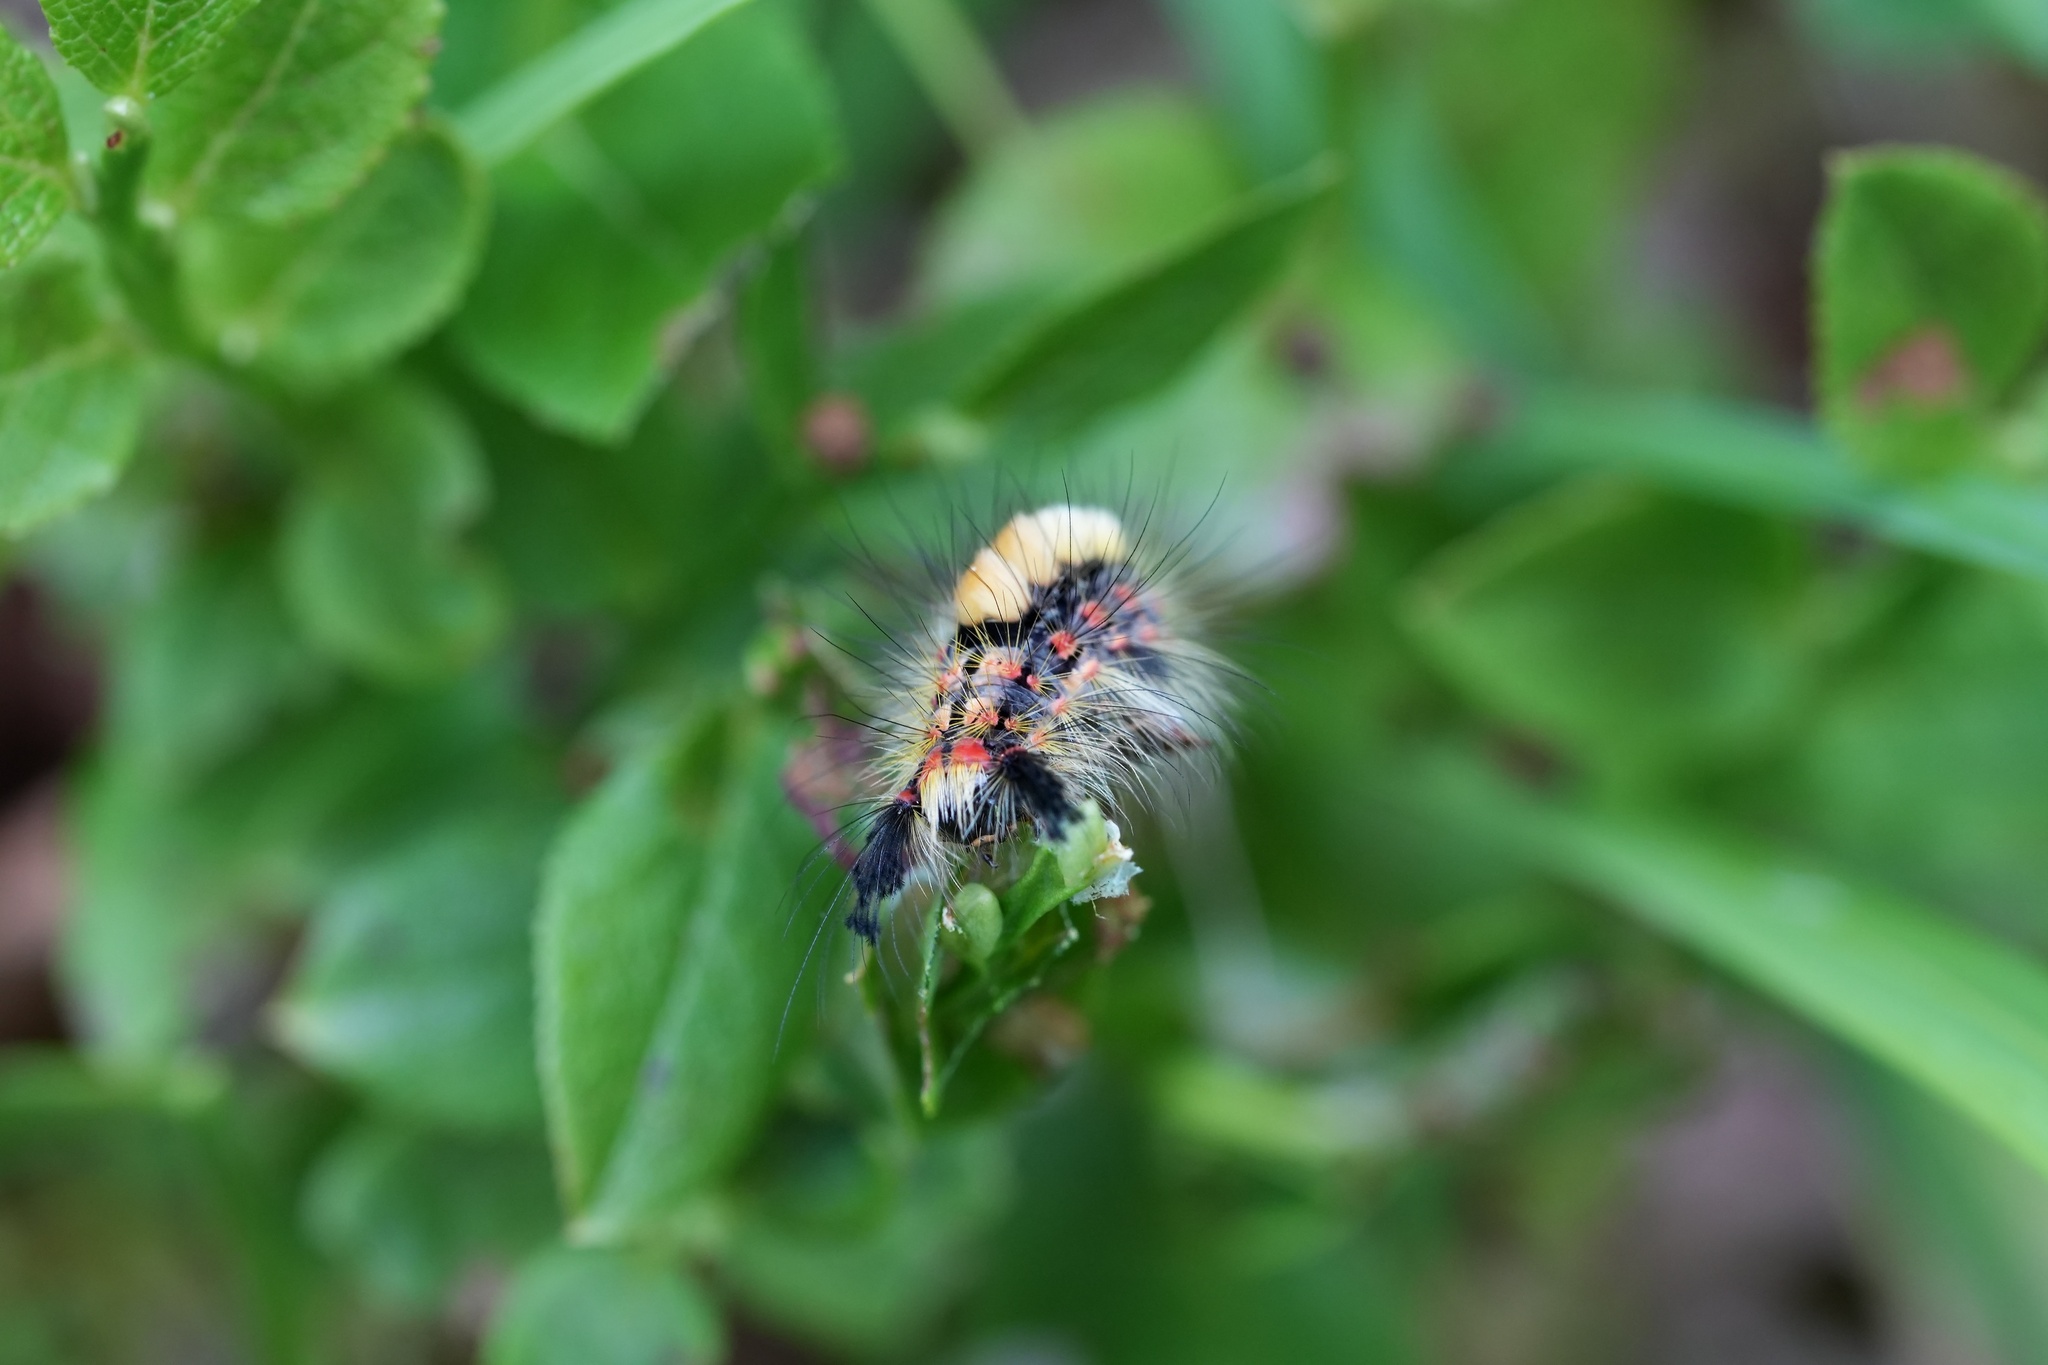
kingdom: Animalia
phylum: Arthropoda
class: Insecta
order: Lepidoptera
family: Erebidae
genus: Orgyia
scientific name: Orgyia antiqua
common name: Vapourer
